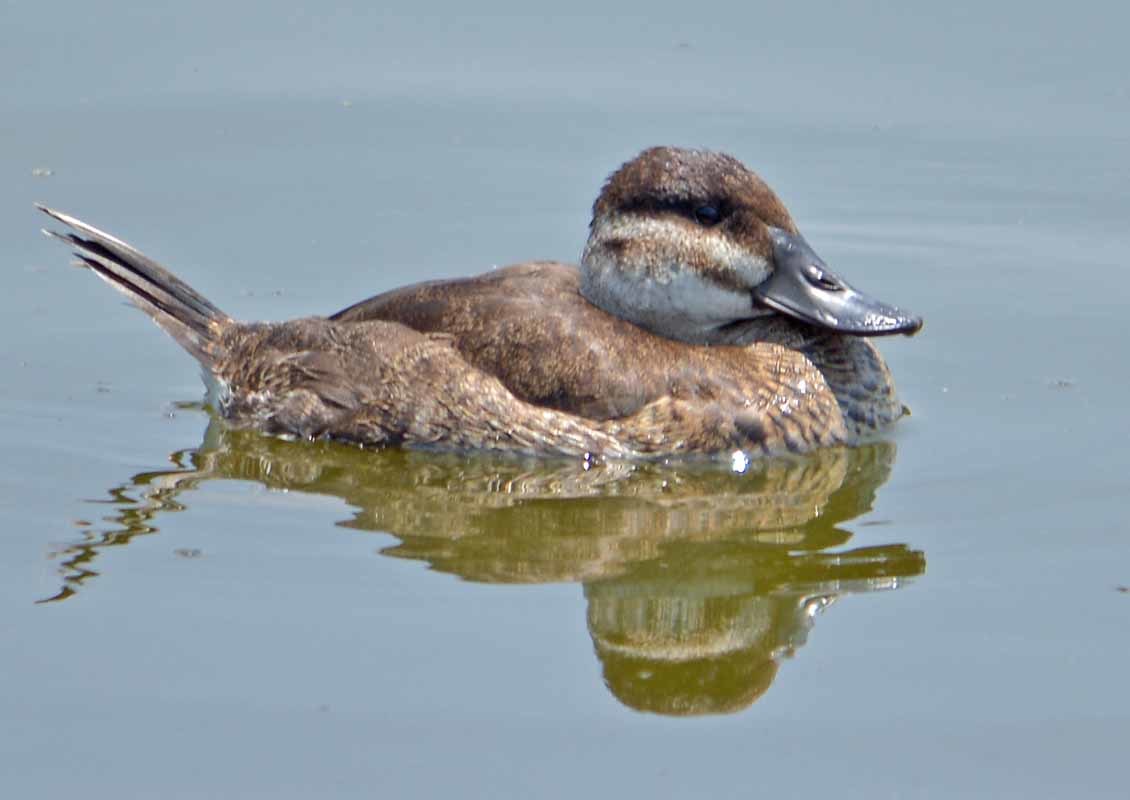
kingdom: Animalia
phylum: Chordata
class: Aves
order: Anseriformes
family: Anatidae
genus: Oxyura
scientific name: Oxyura jamaicensis
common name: Ruddy duck
